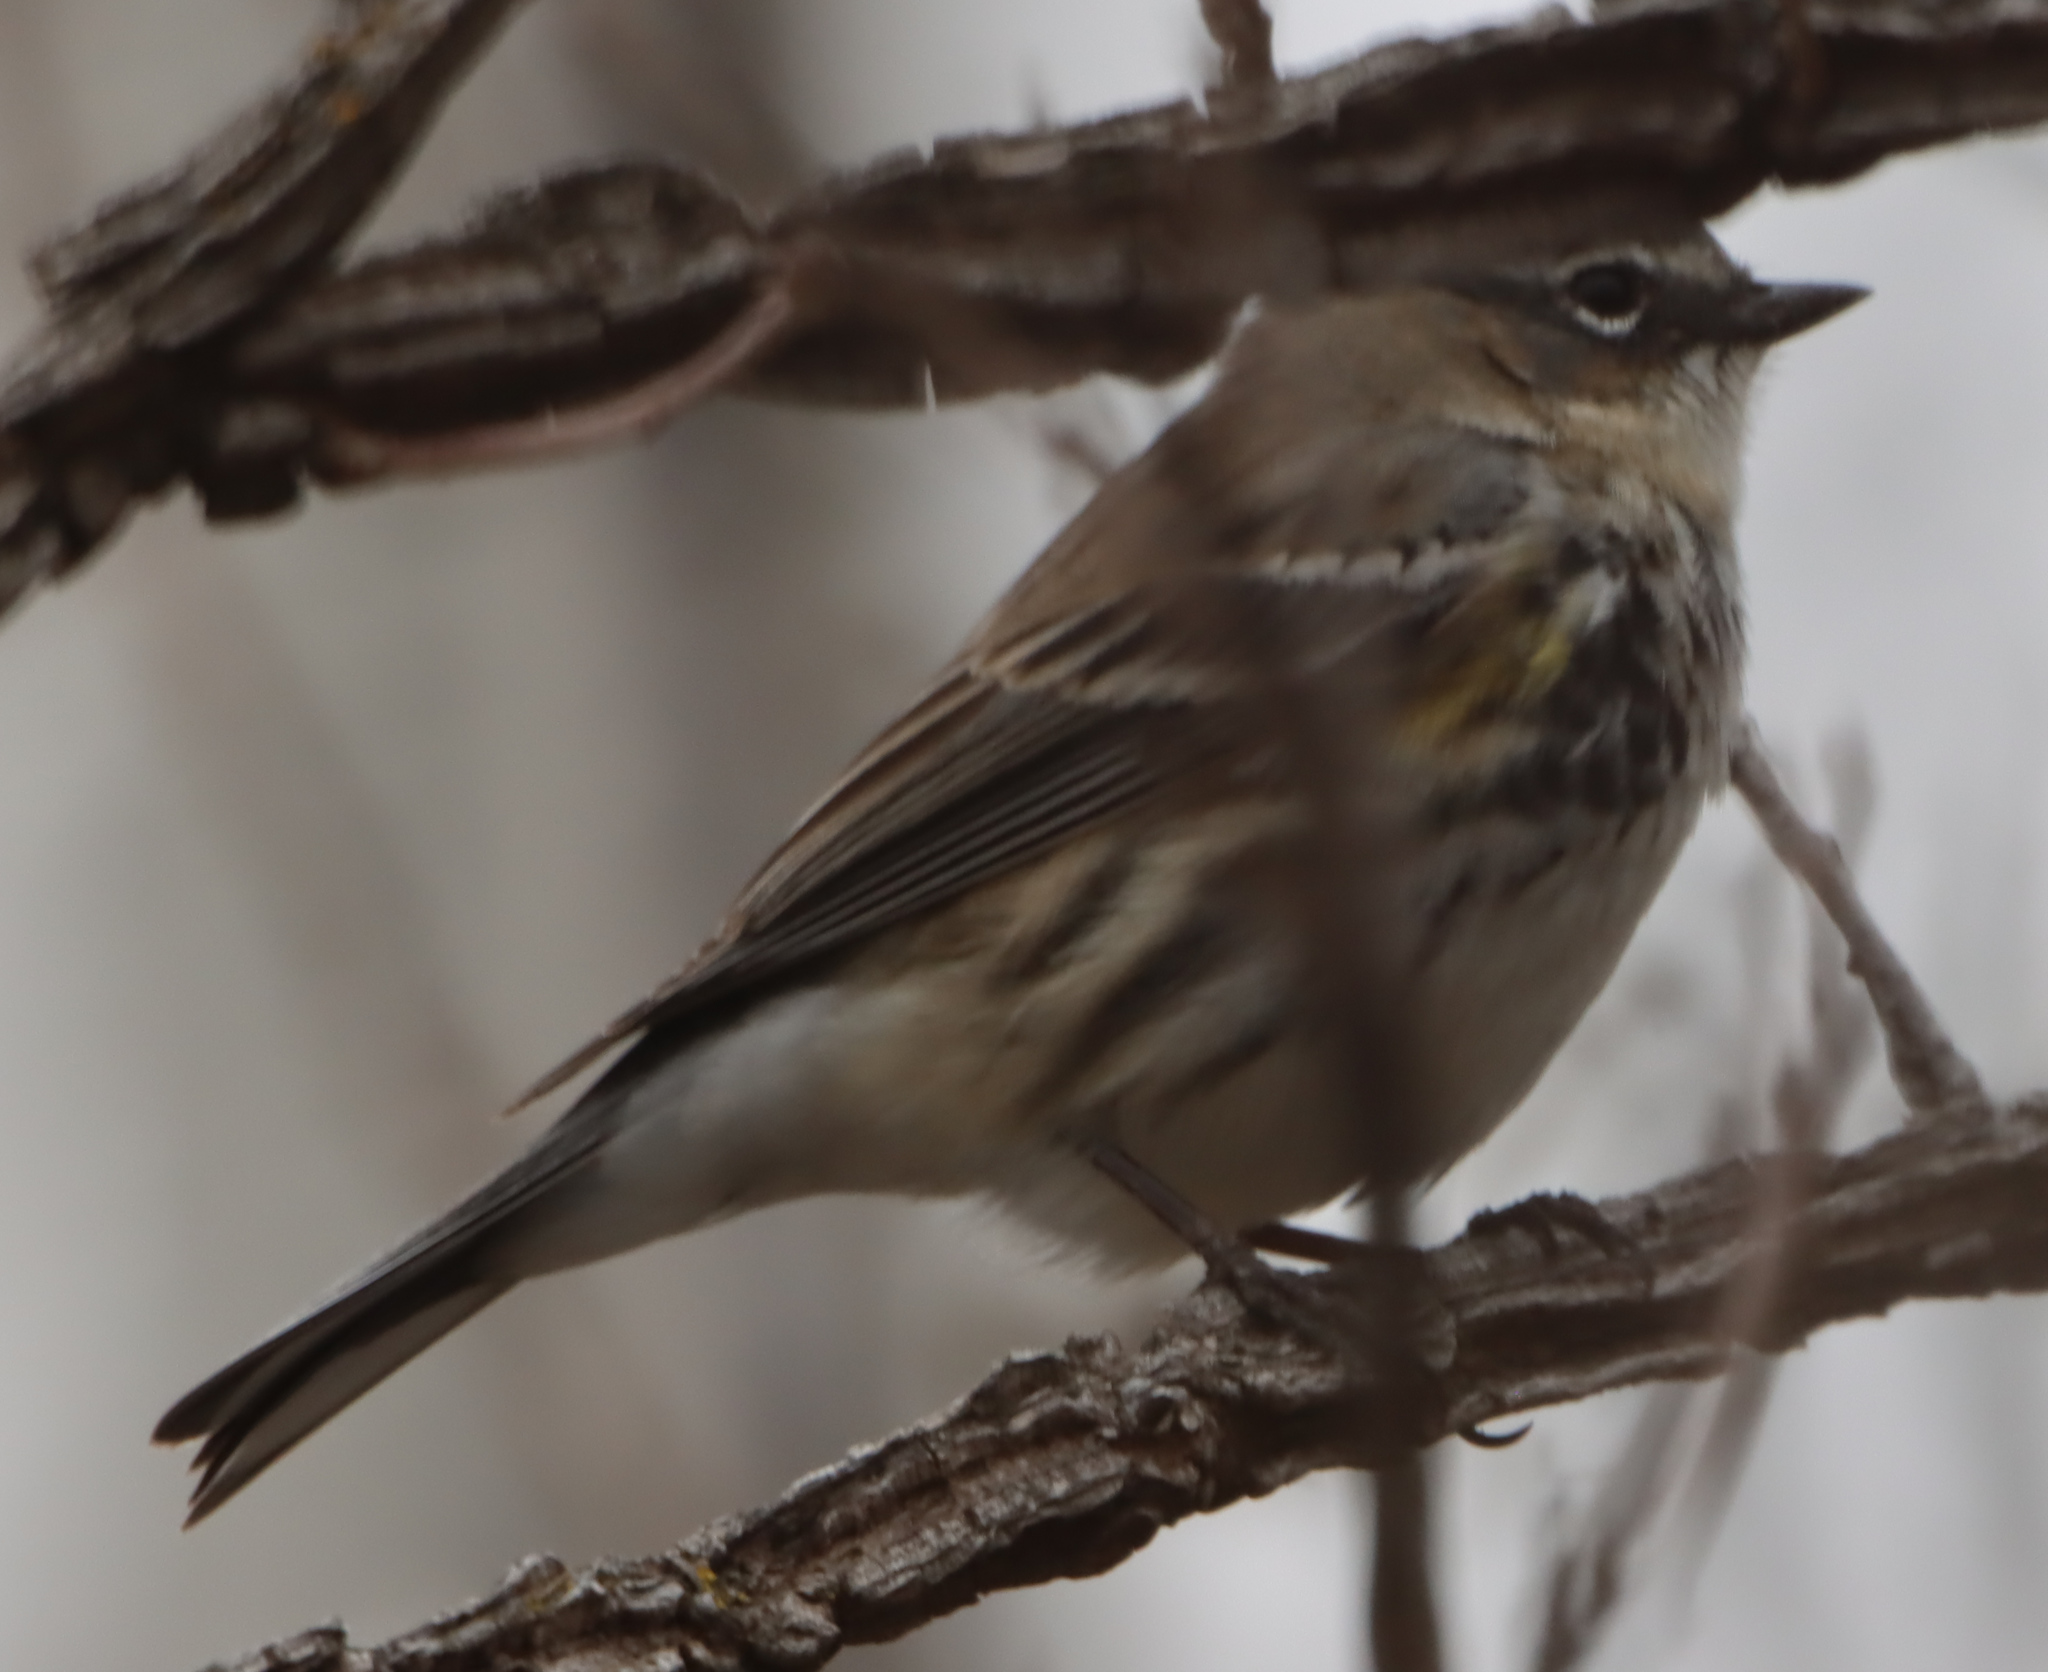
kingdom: Animalia
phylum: Chordata
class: Aves
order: Passeriformes
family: Parulidae
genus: Setophaga
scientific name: Setophaga coronata
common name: Myrtle warbler
